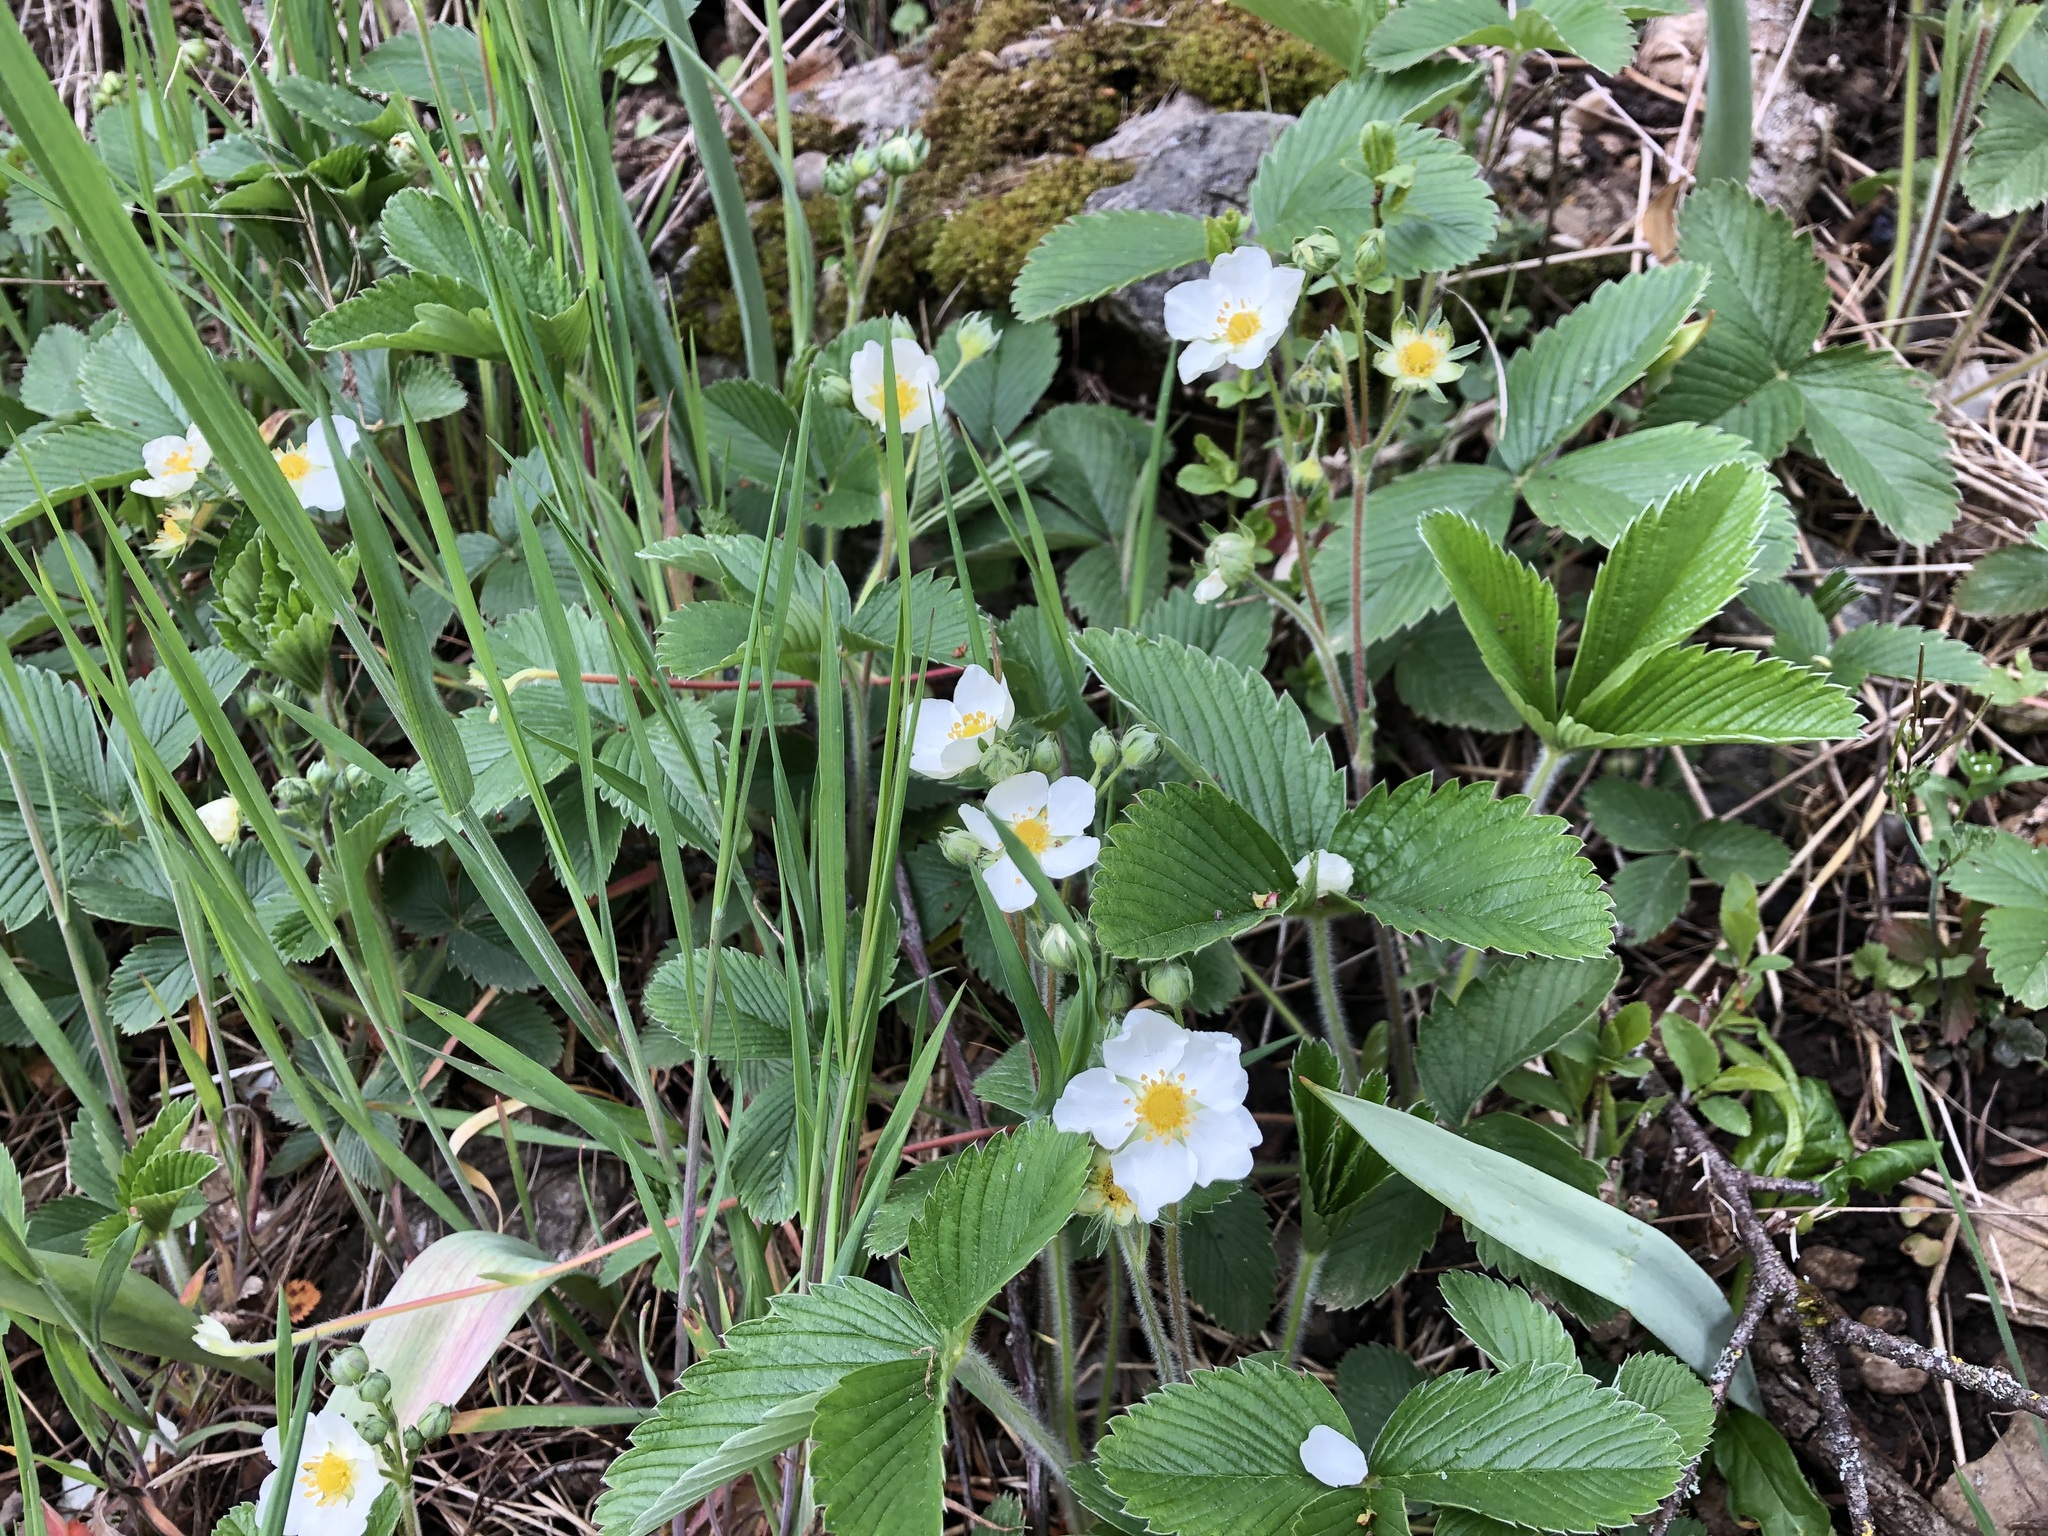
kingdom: Plantae
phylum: Tracheophyta
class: Magnoliopsida
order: Rosales
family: Rosaceae
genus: Fragaria
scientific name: Fragaria vesca
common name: Wild strawberry
